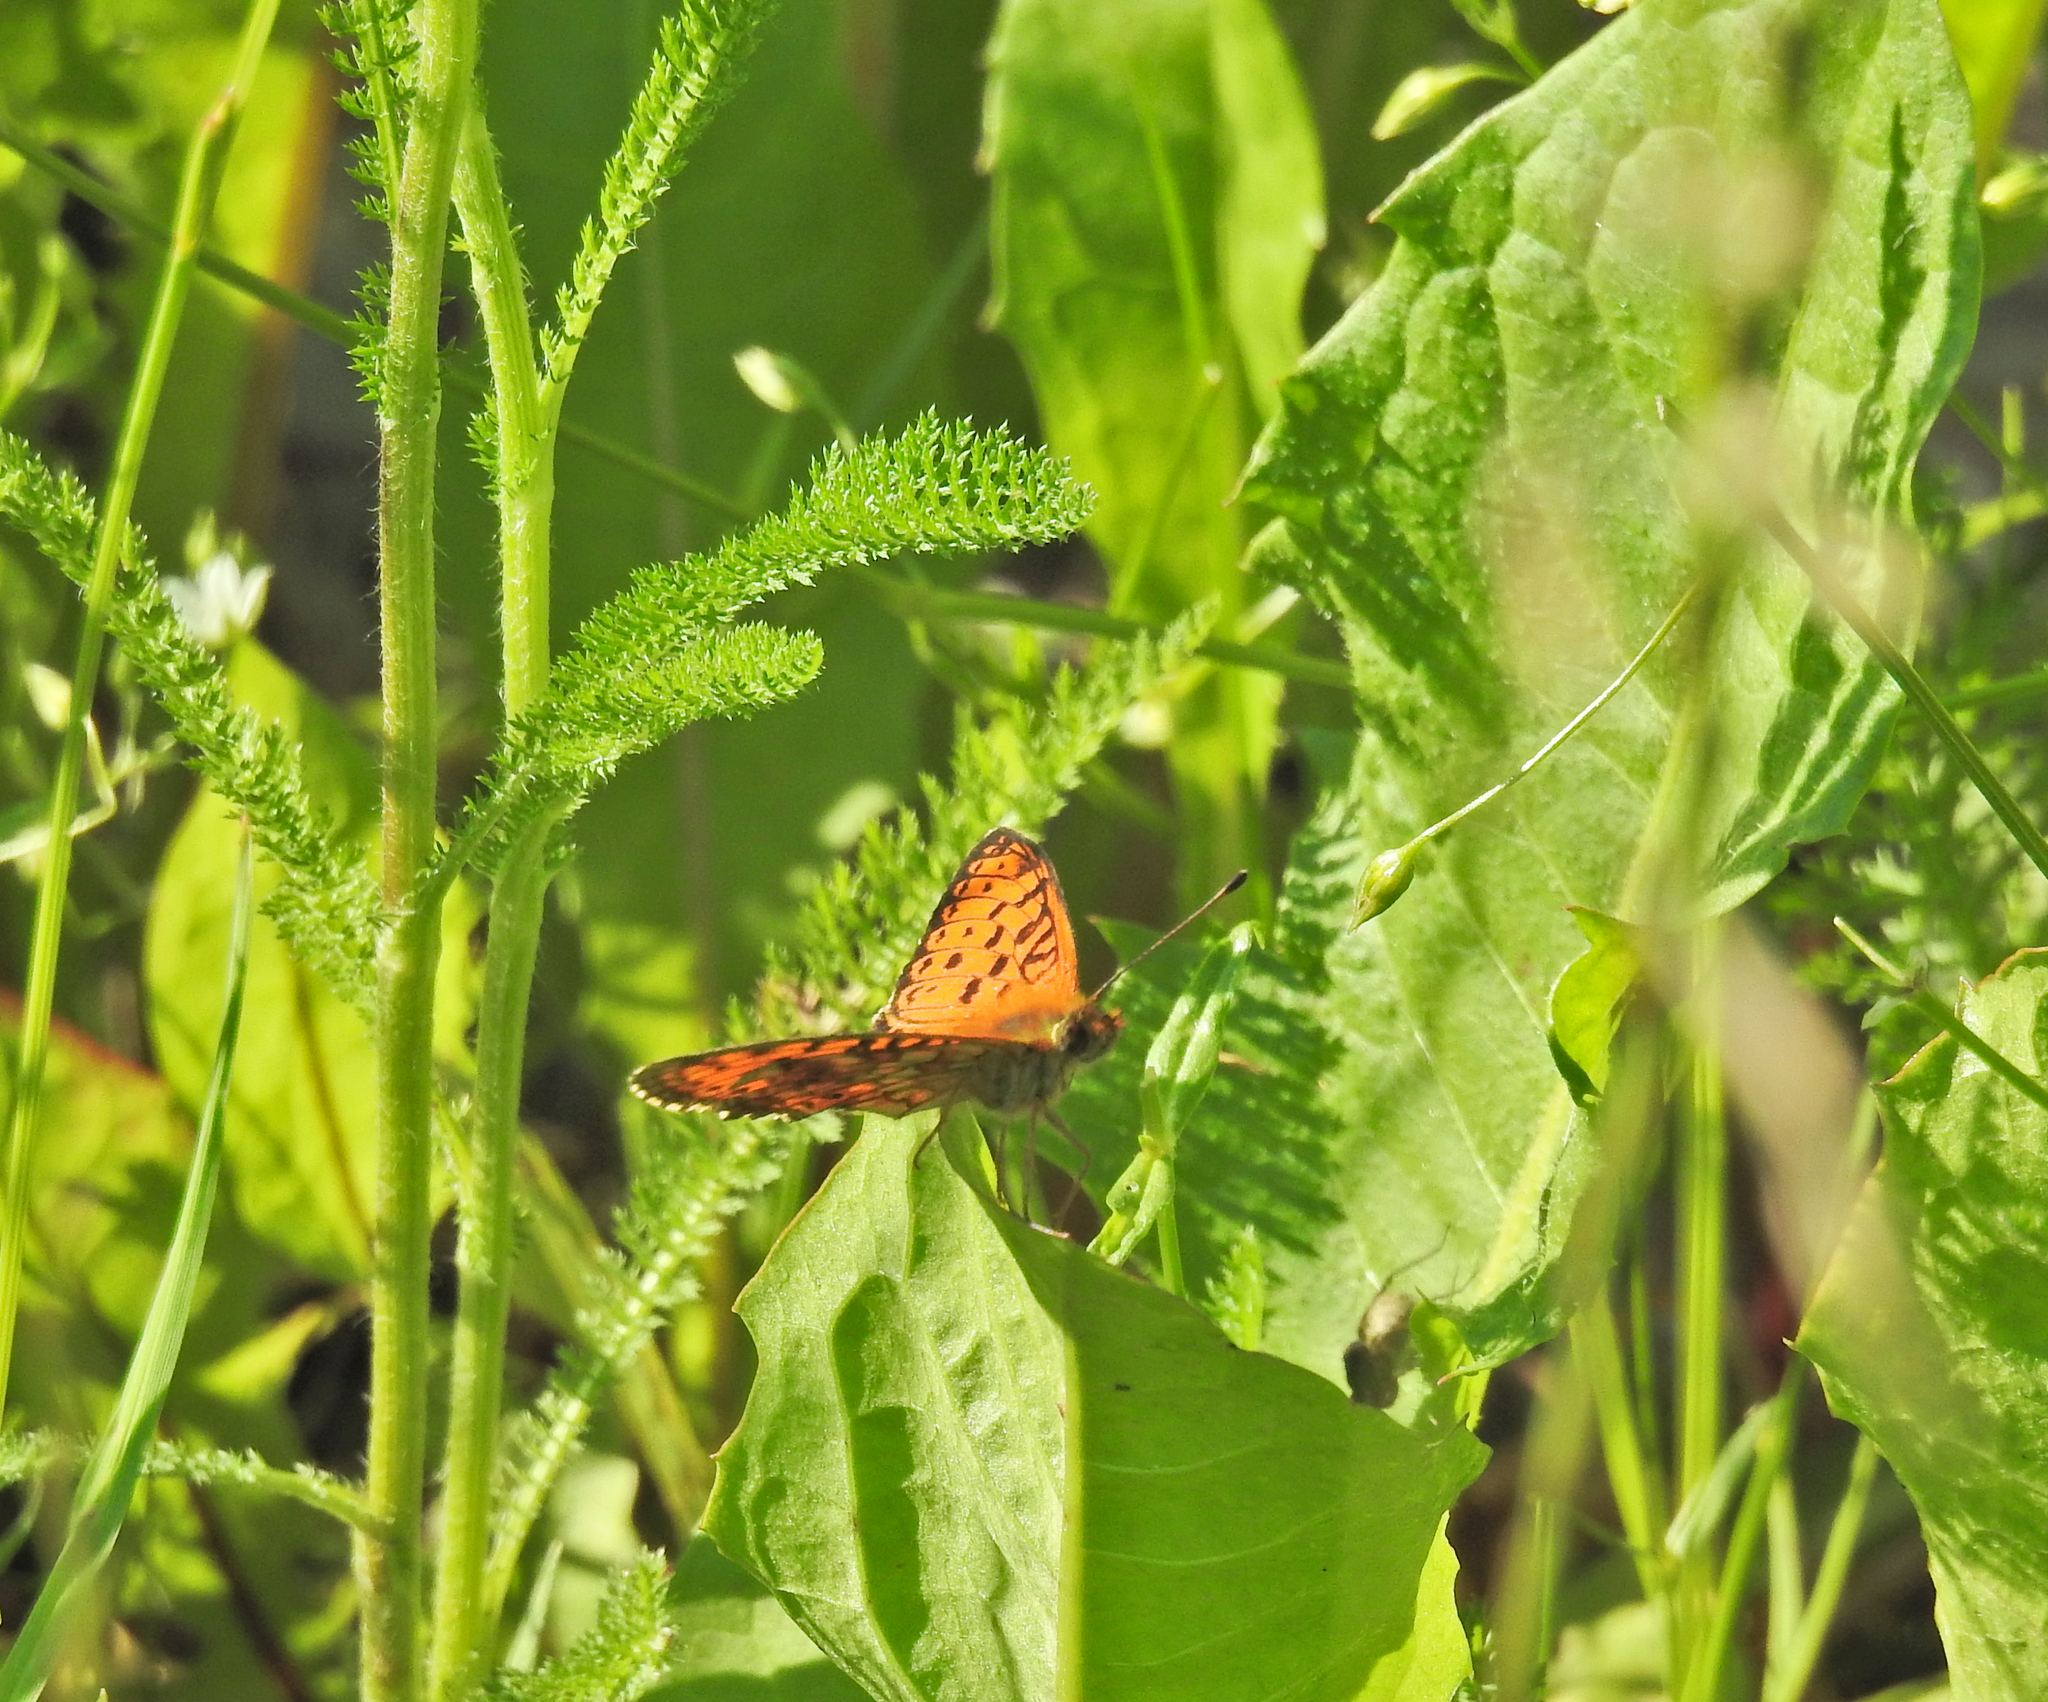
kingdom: Animalia
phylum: Arthropoda
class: Insecta
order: Lepidoptera
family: Nymphalidae
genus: Brenthis
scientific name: Brenthis ino
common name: Lesser marbled fritillary
